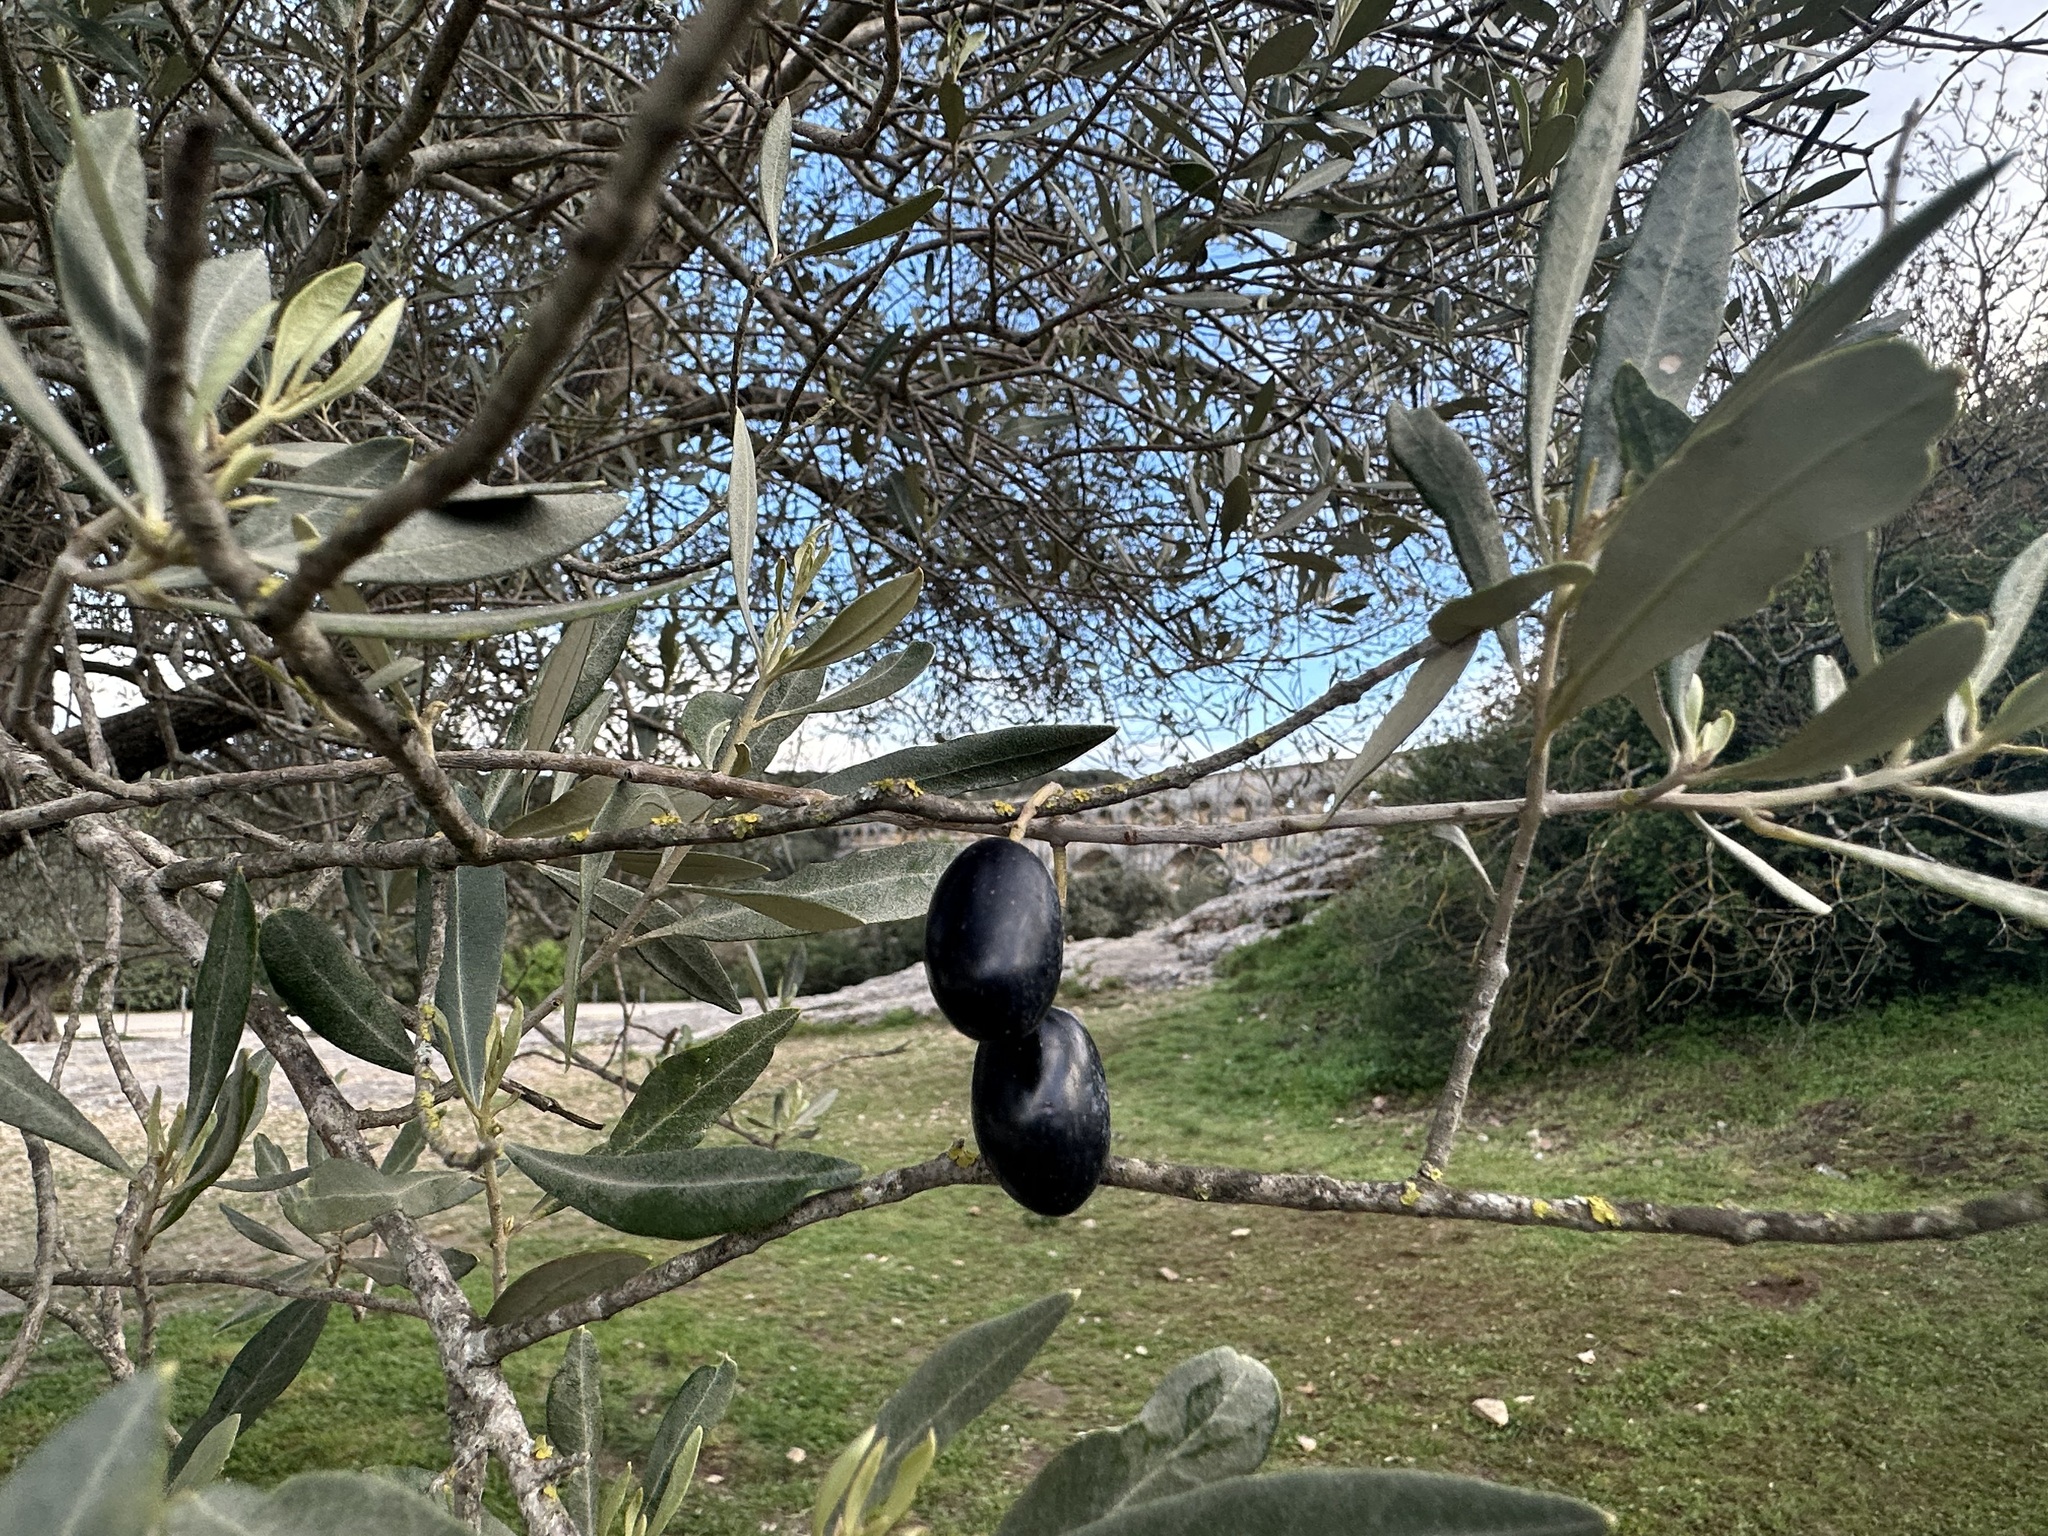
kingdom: Plantae
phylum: Tracheophyta
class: Magnoliopsida
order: Lamiales
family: Oleaceae
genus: Olea
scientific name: Olea europaea
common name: Olive
